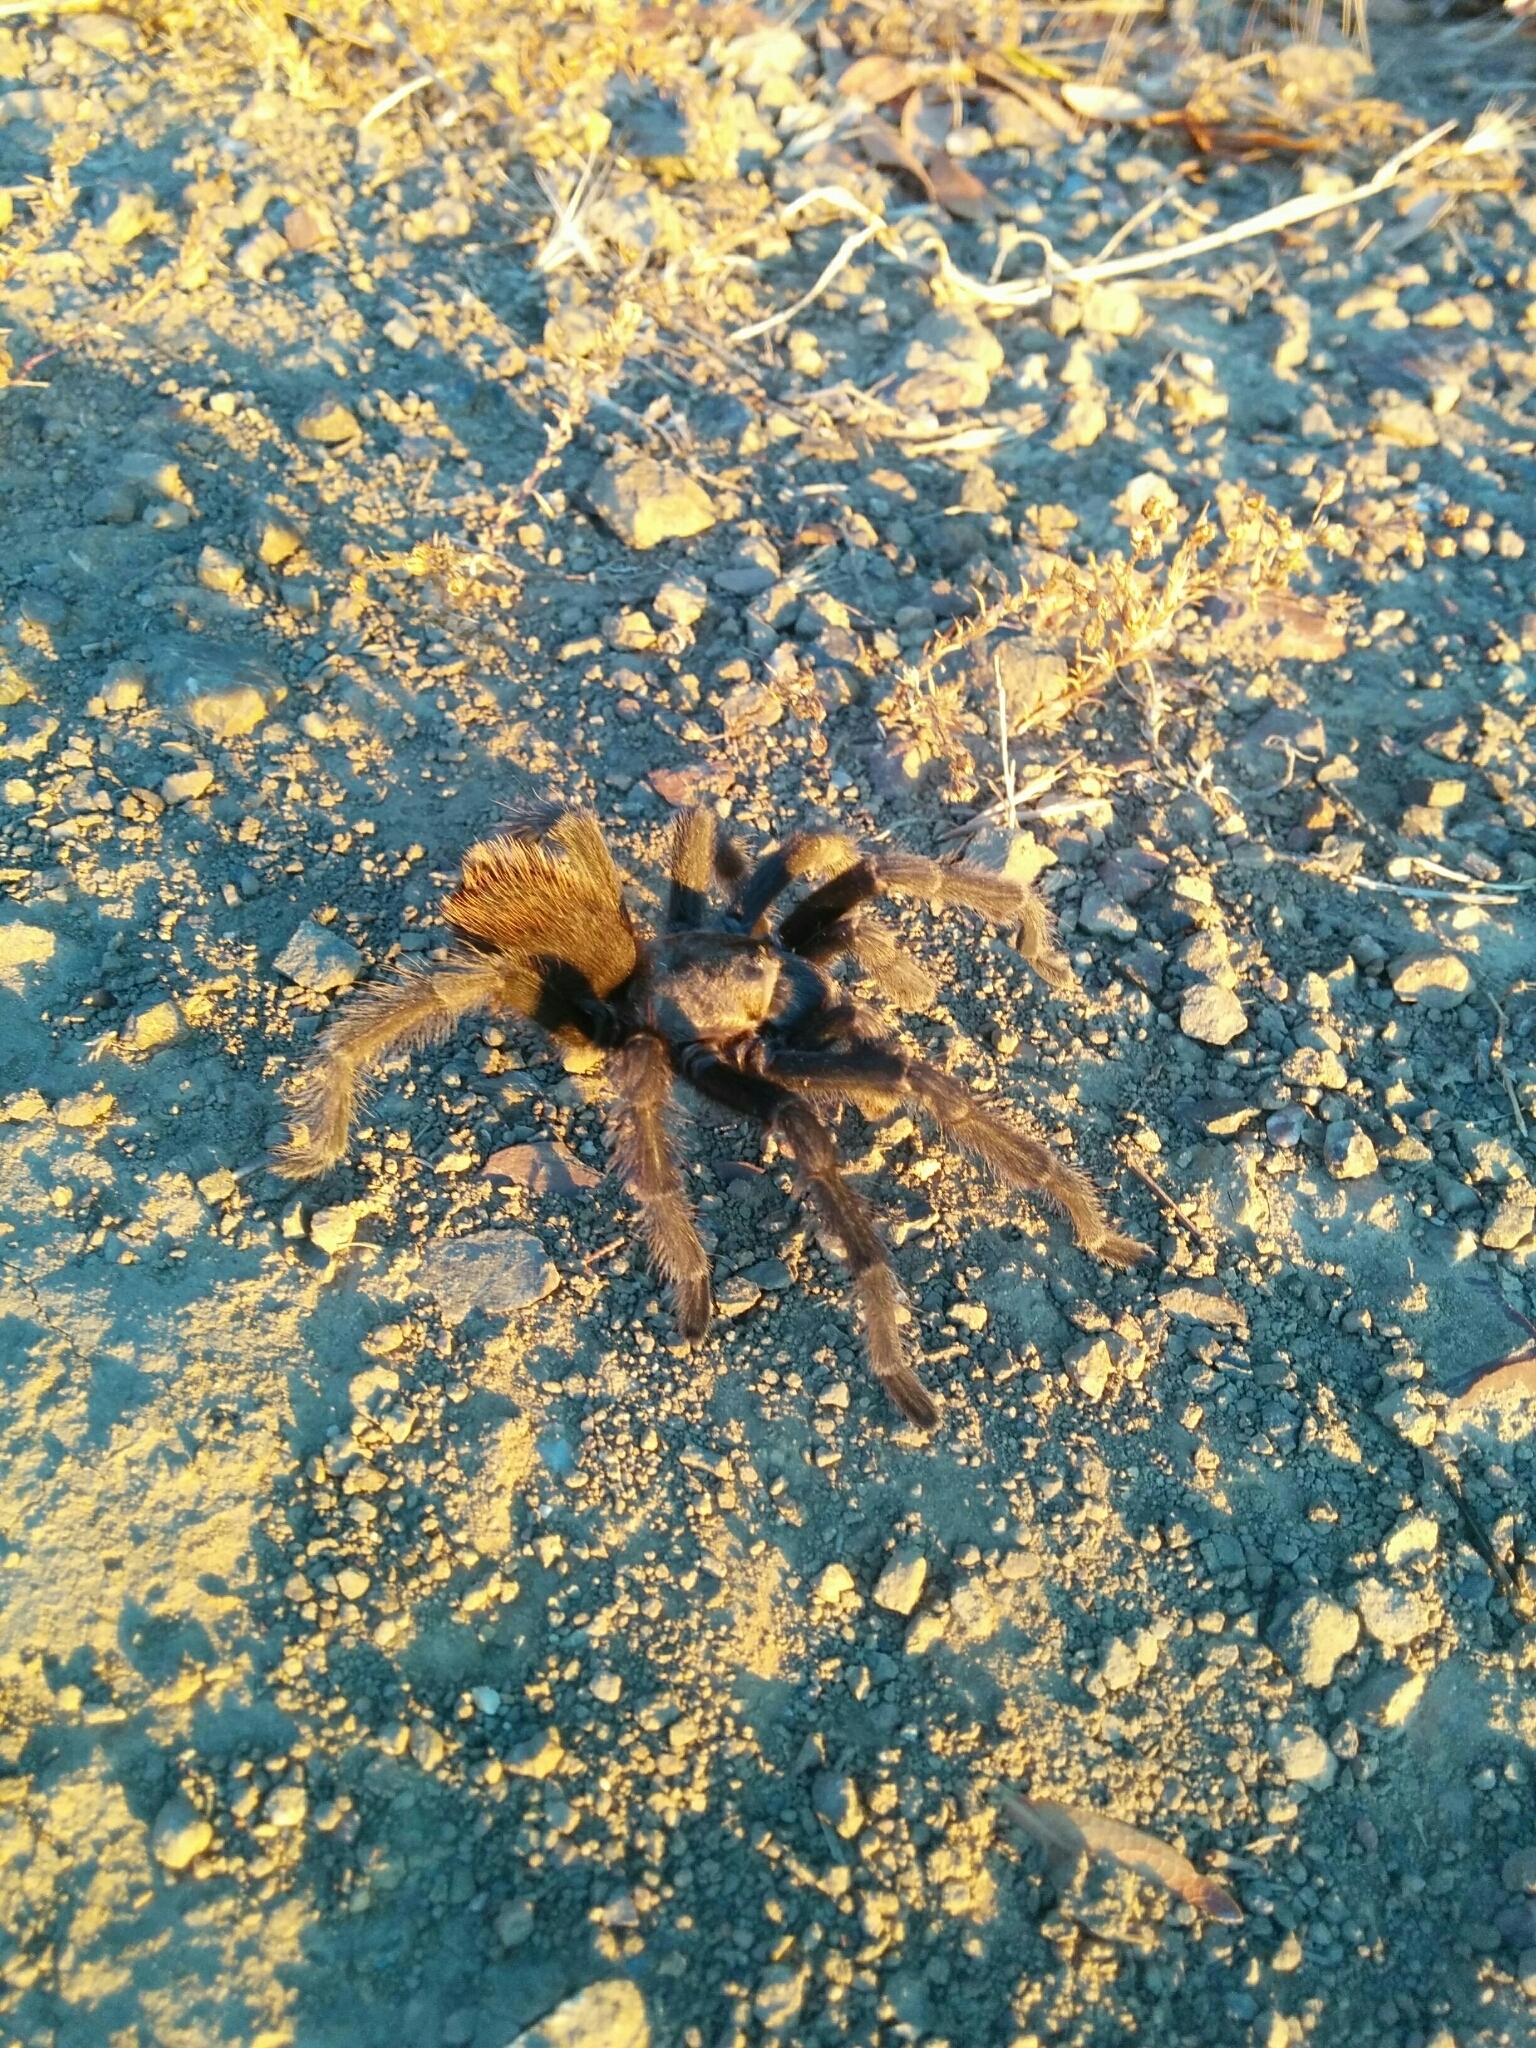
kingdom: Animalia
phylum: Arthropoda
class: Arachnida
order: Araneae
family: Theraphosidae
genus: Aphonopelma
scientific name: Aphonopelma iodius
